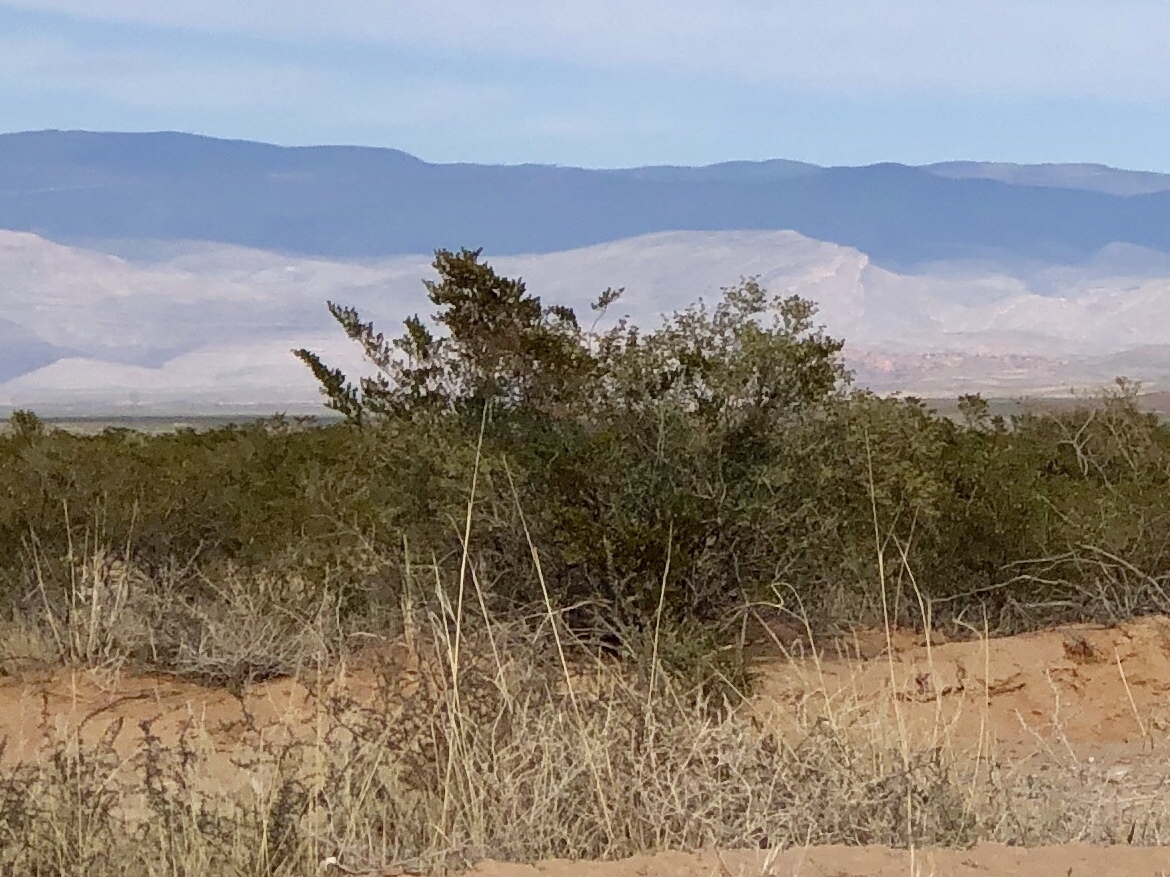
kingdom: Plantae
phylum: Tracheophyta
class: Magnoliopsida
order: Zygophyllales
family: Zygophyllaceae
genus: Larrea
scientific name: Larrea tridentata
